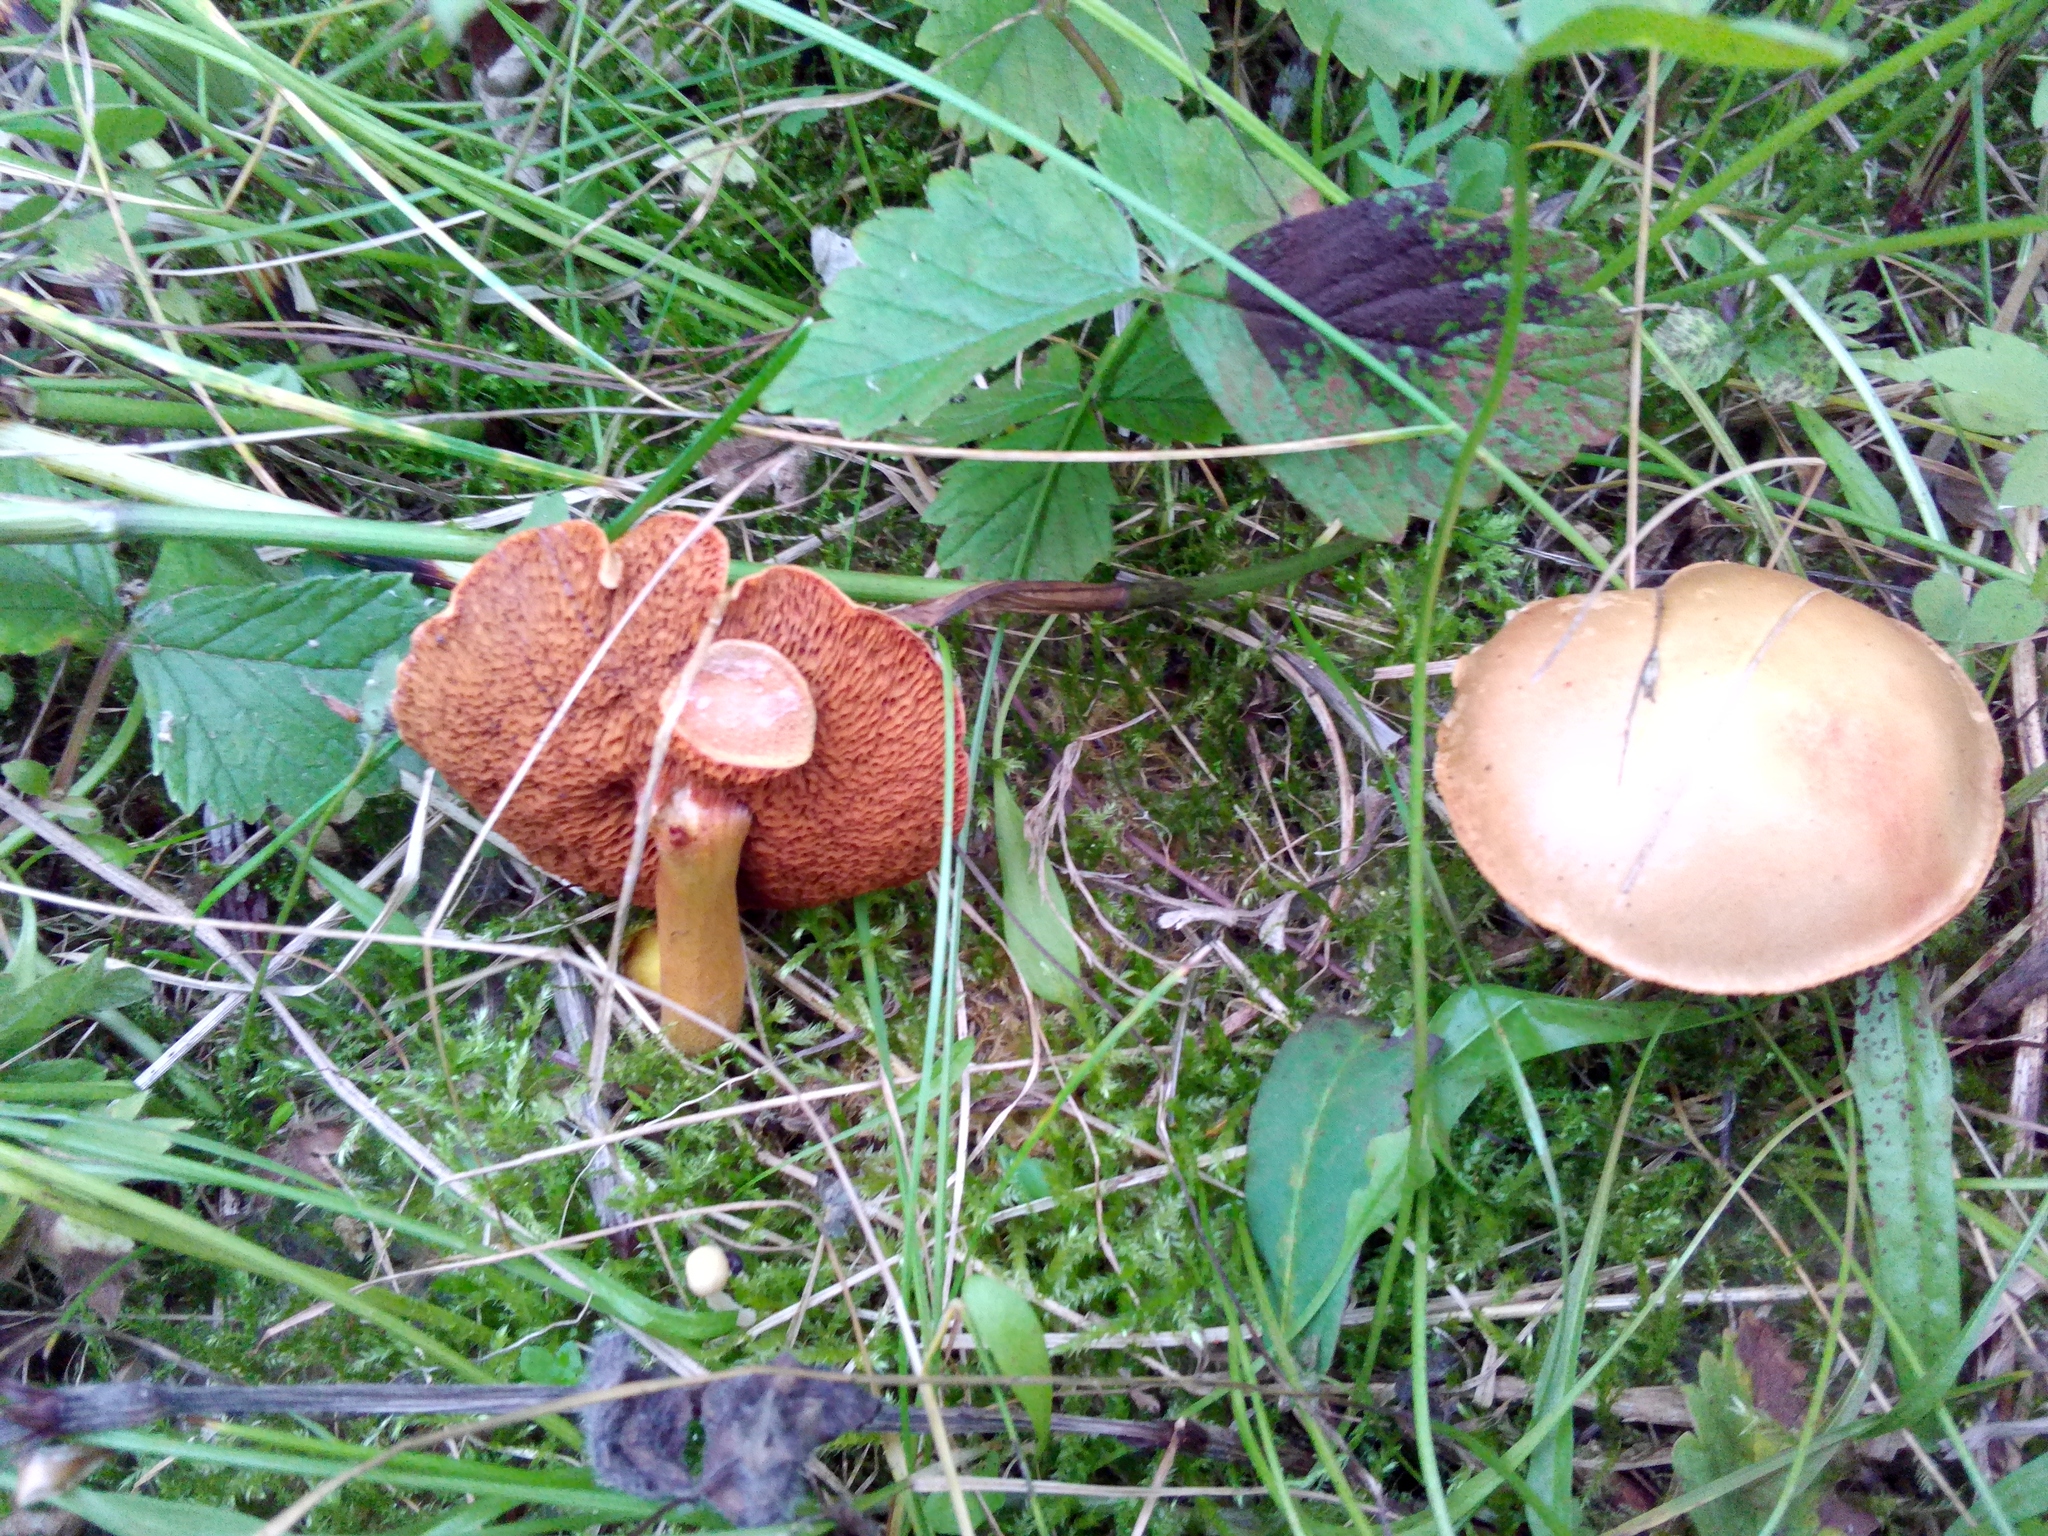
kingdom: Fungi
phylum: Basidiomycota
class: Agaricomycetes
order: Boletales
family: Boletaceae
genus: Chalciporus
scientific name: Chalciporus piperatus
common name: Peppery bolete
